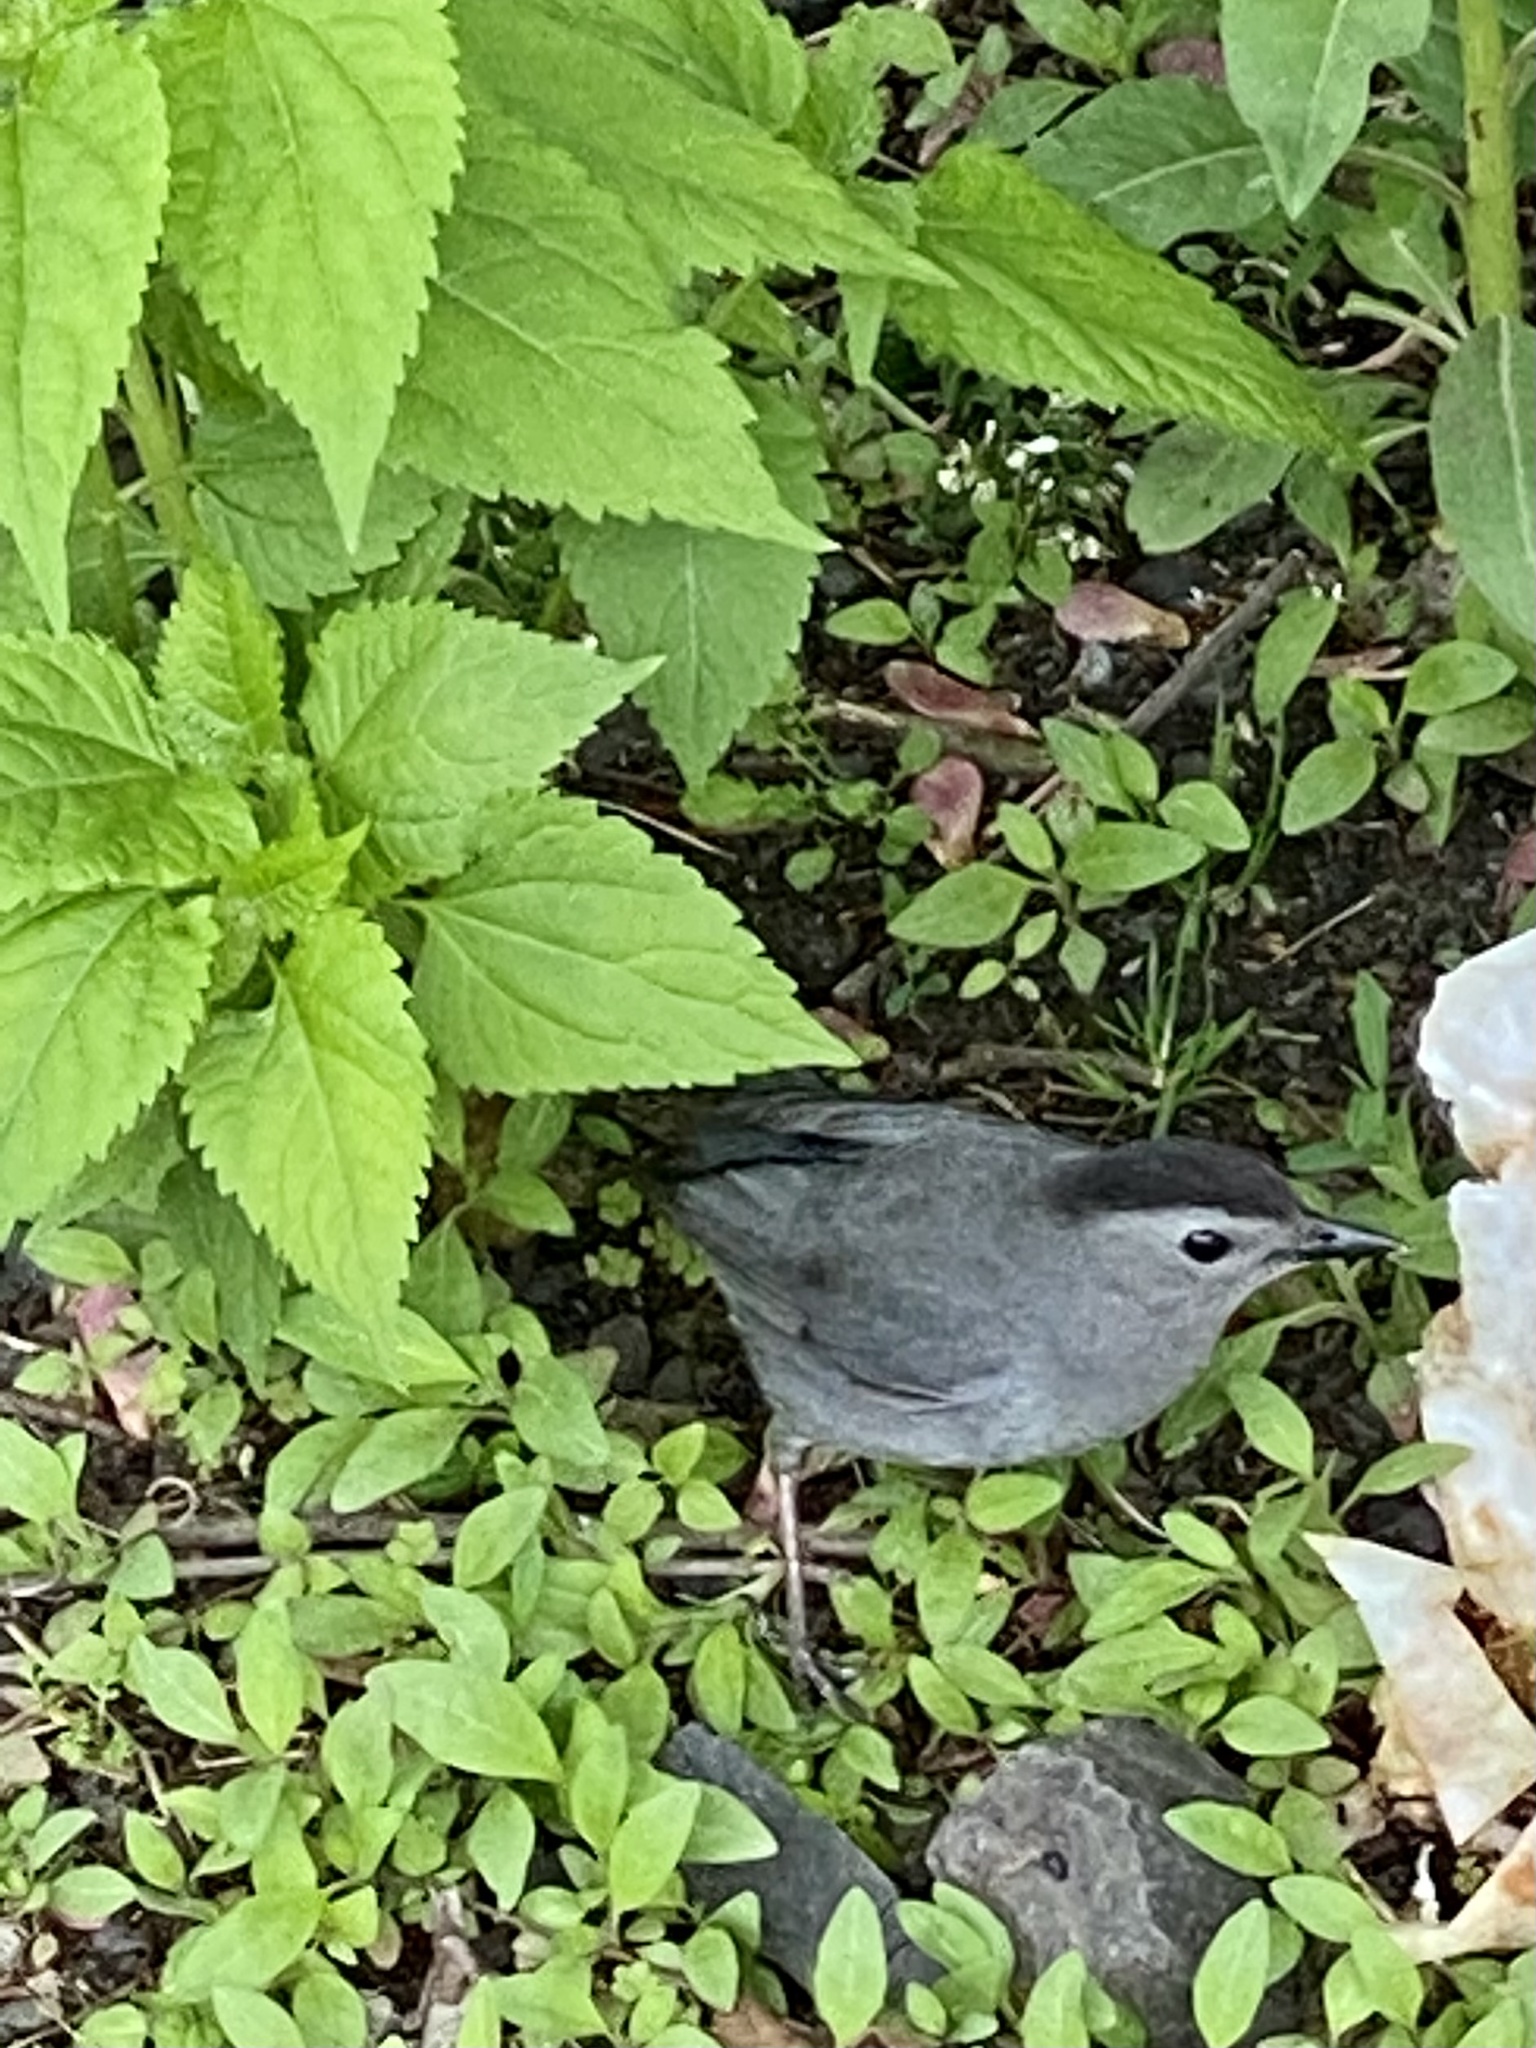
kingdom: Animalia
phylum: Chordata
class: Aves
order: Passeriformes
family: Mimidae
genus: Dumetella
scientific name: Dumetella carolinensis
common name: Gray catbird
